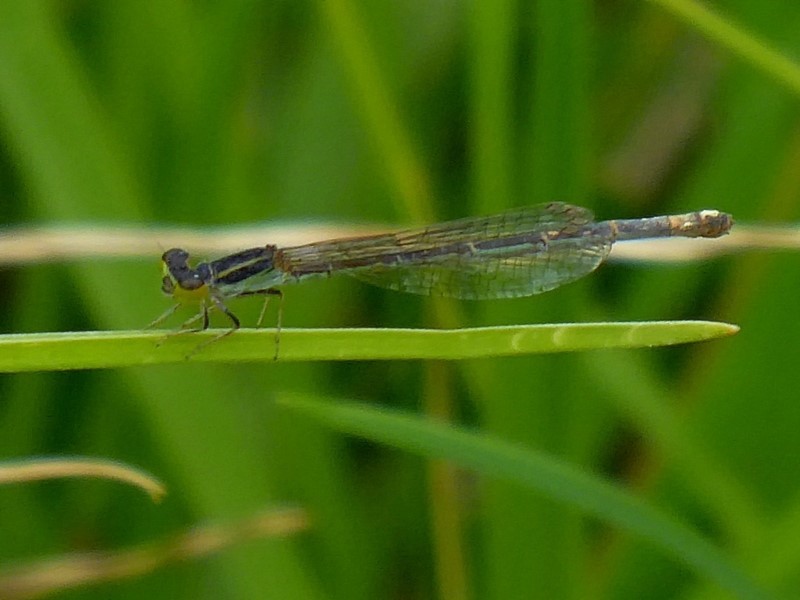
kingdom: Animalia
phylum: Arthropoda
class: Insecta
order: Odonata
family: Coenagrionidae
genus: Ischnura
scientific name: Ischnura aurora
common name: Gossamer damselfly
